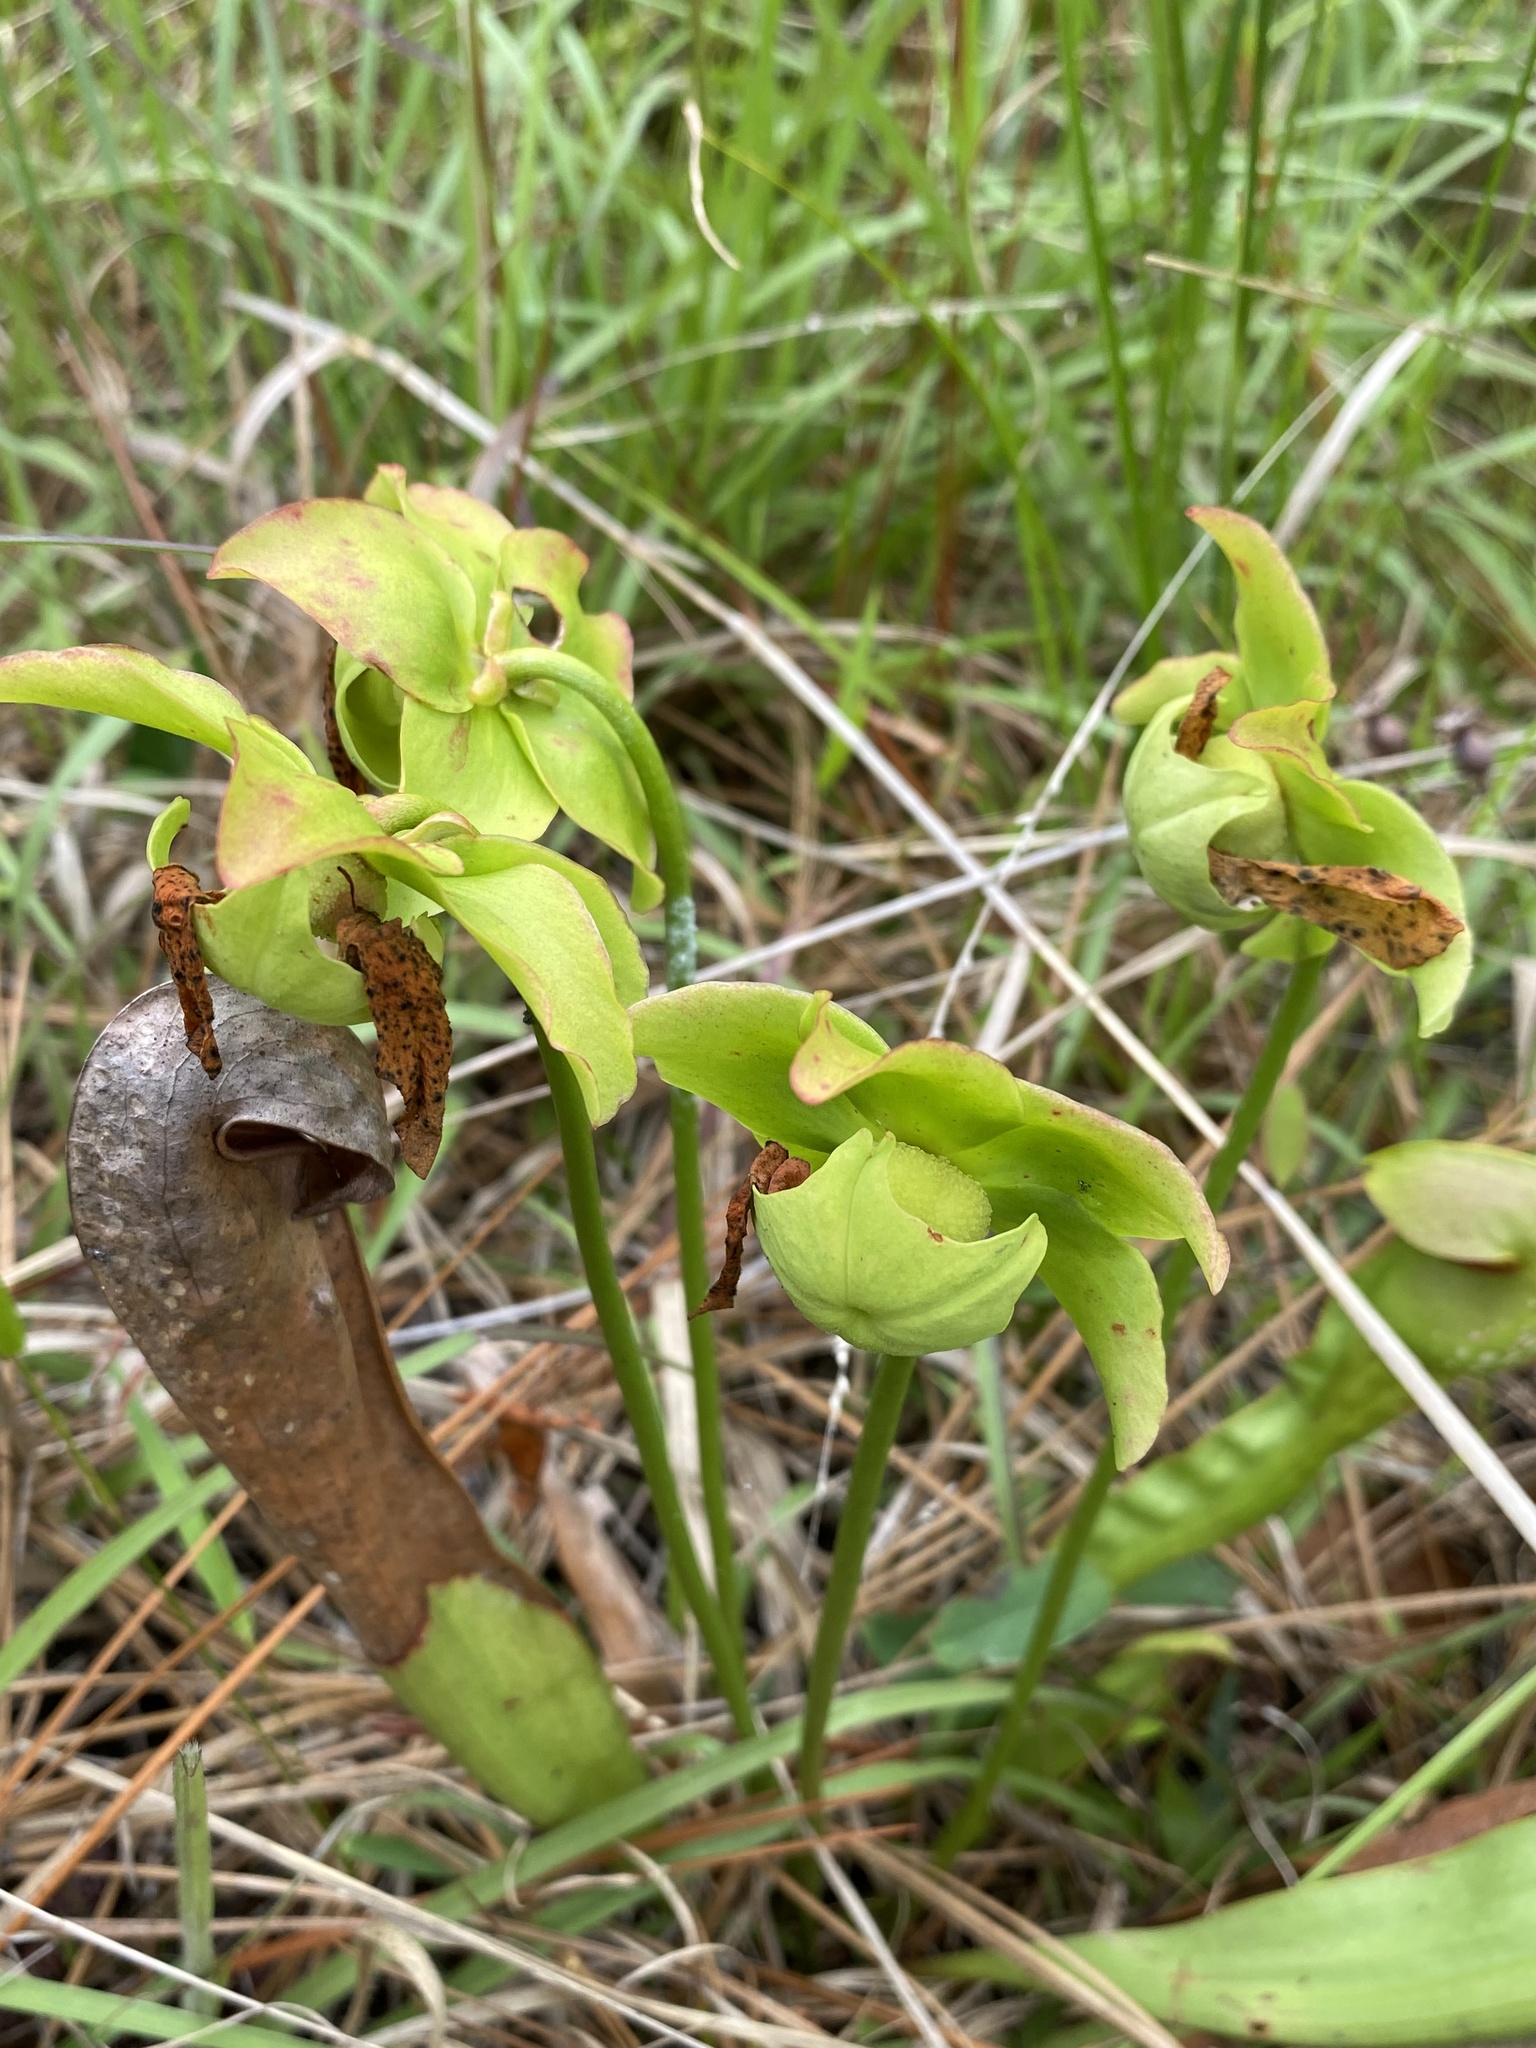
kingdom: Plantae
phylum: Tracheophyta
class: Magnoliopsida
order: Ericales
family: Sarraceniaceae
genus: Sarracenia
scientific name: Sarracenia minor
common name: Rainhat-trumpet
